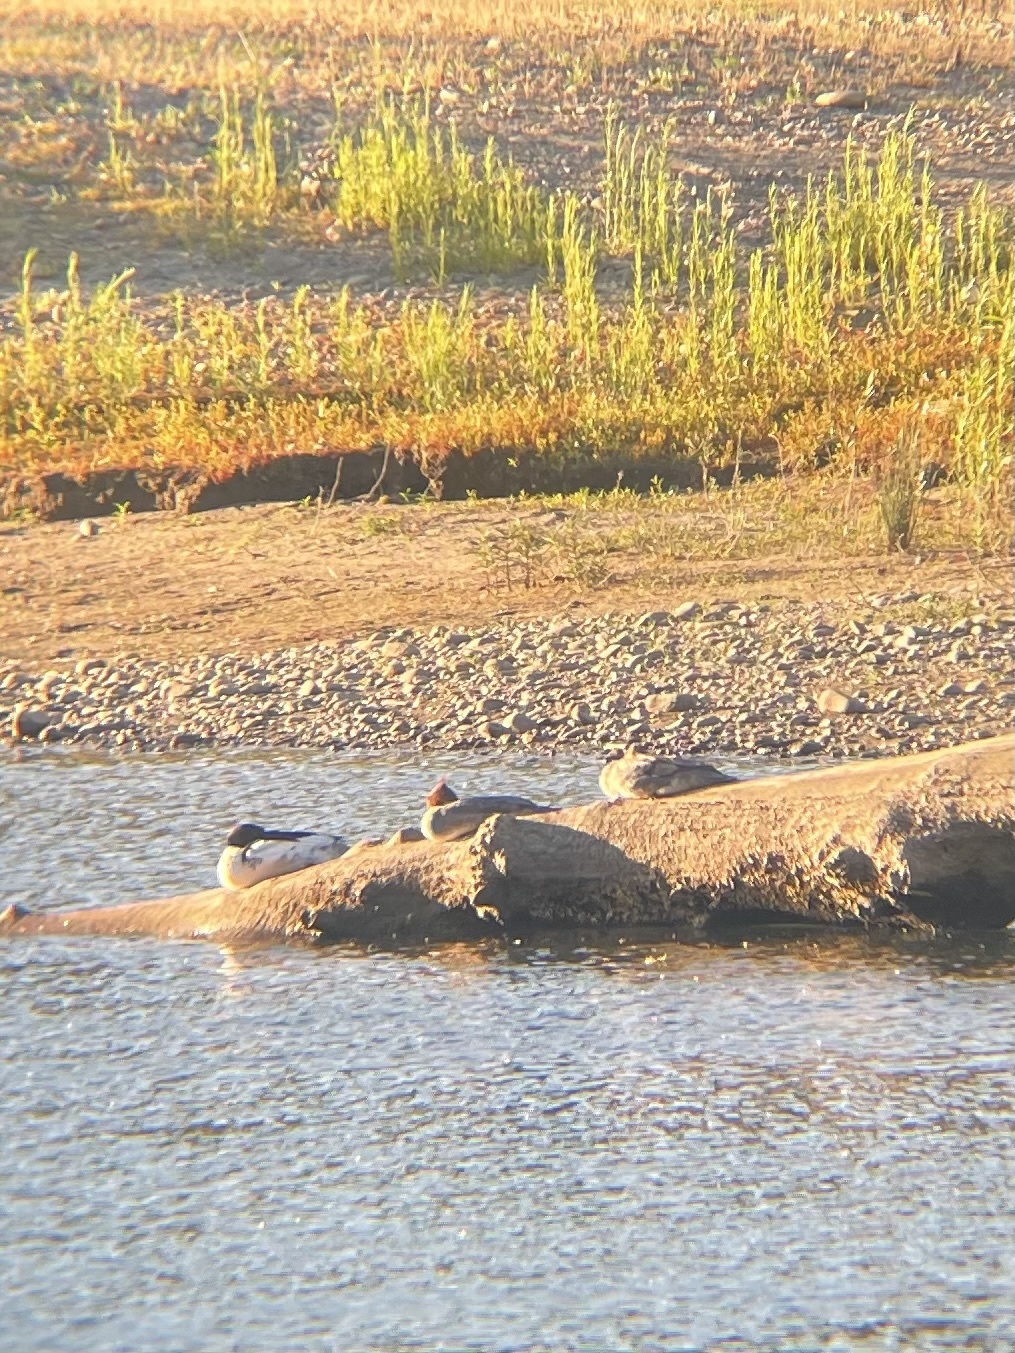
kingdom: Animalia
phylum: Chordata
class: Aves
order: Anseriformes
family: Anatidae
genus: Mergus
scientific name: Mergus merganser
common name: Common merganser
